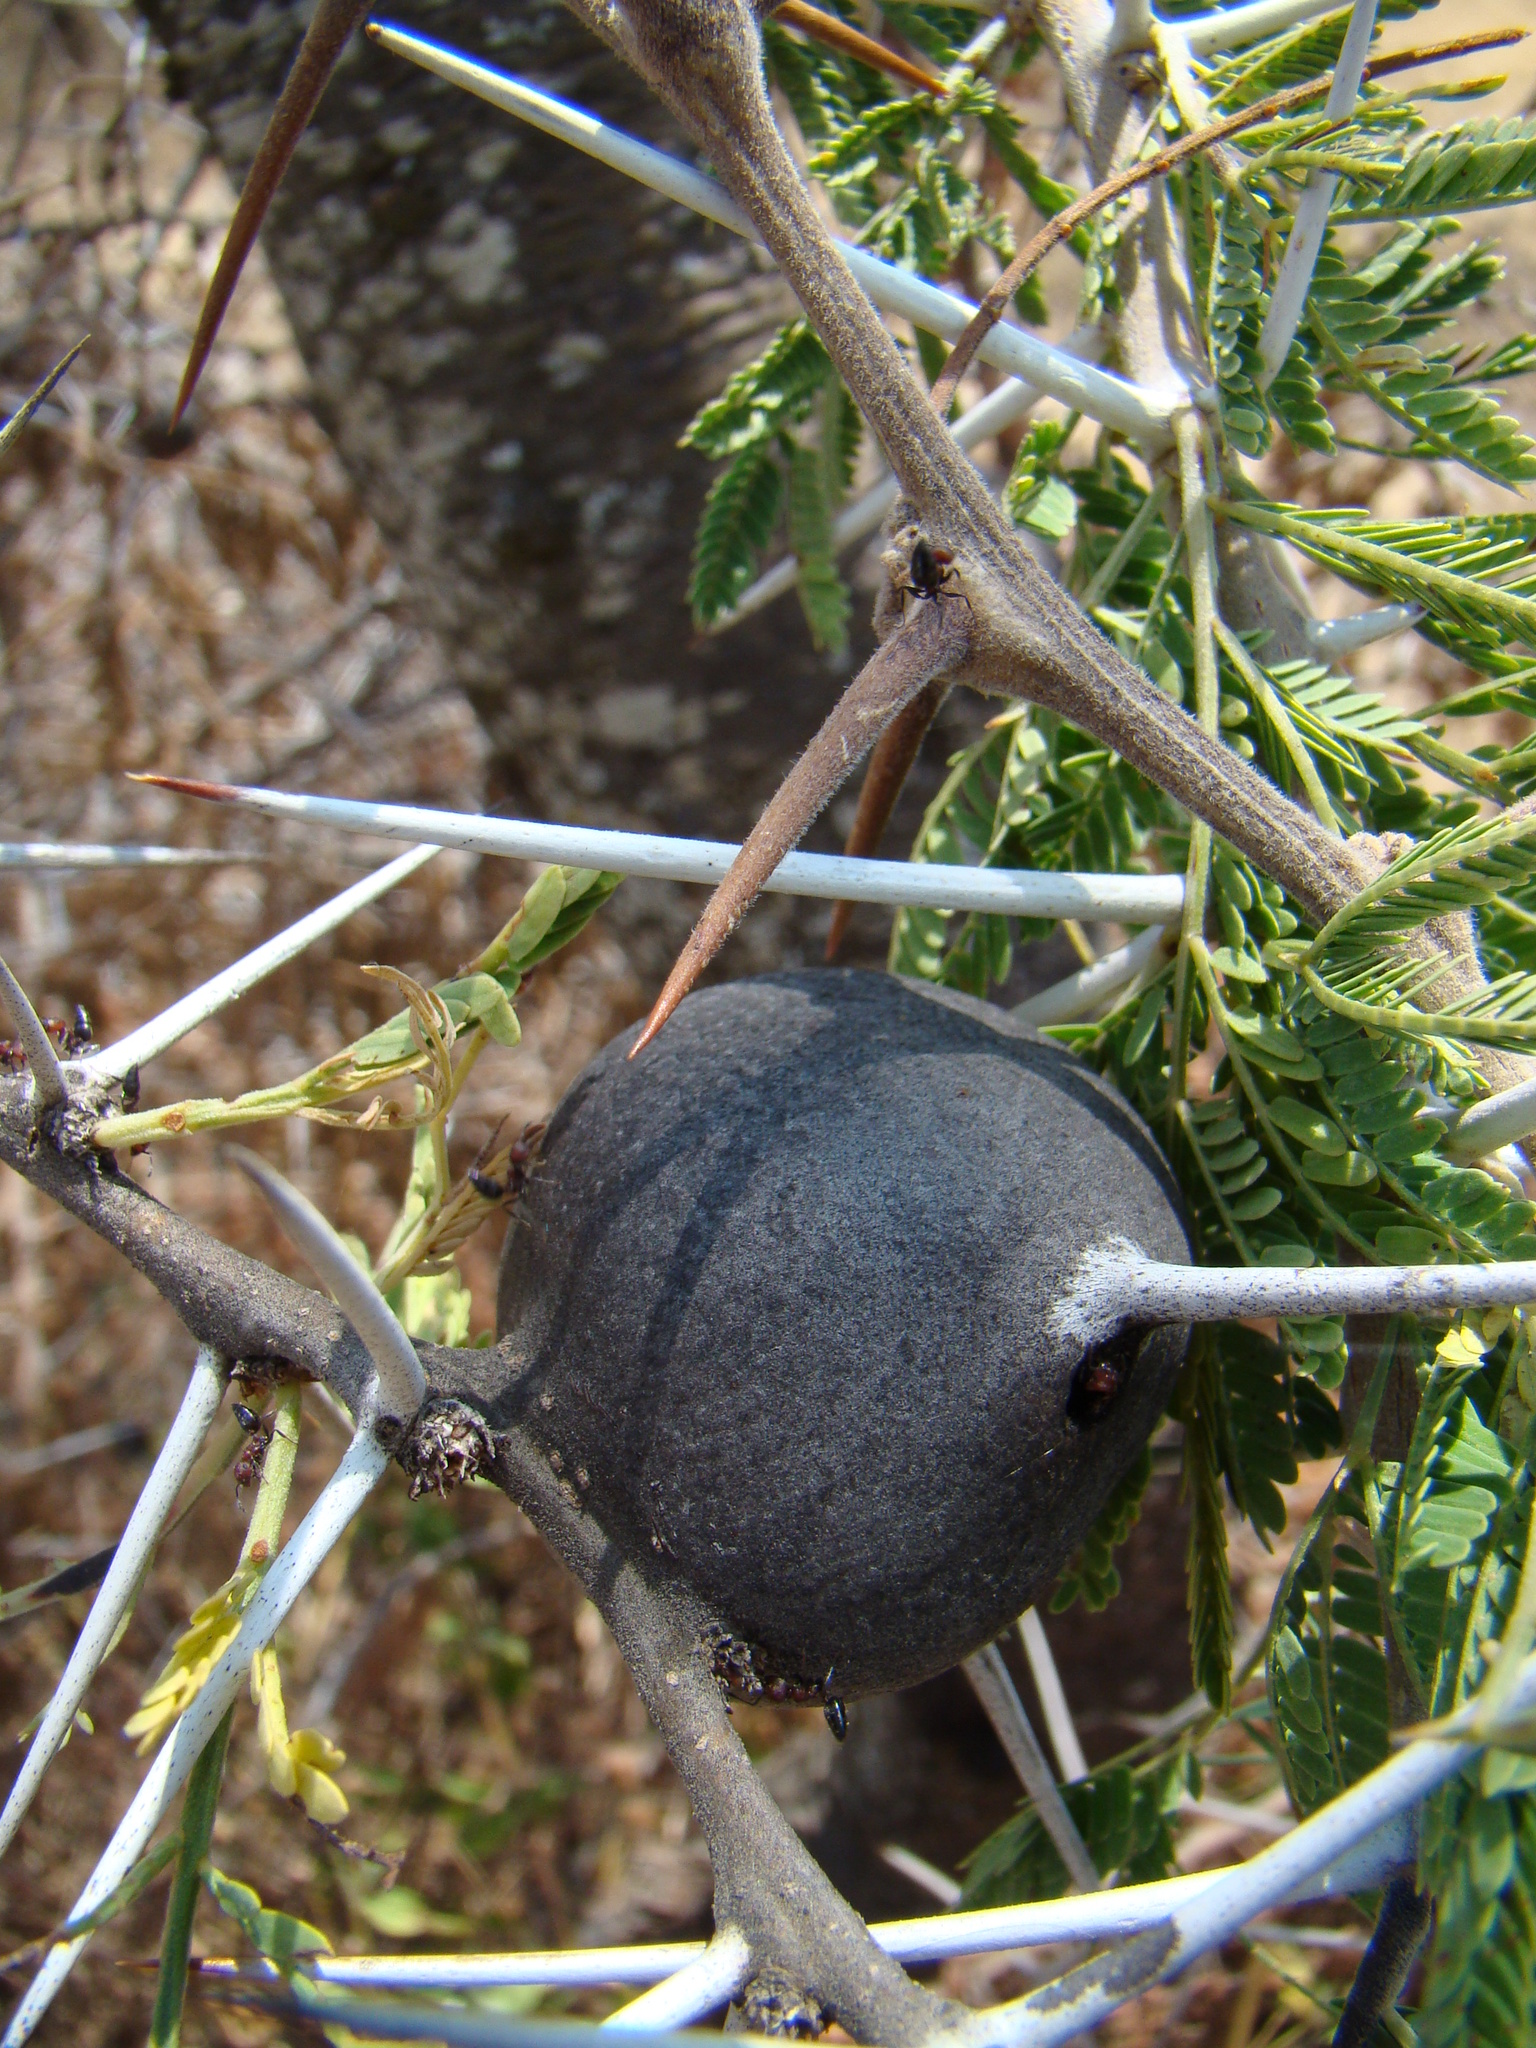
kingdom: Plantae
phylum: Tracheophyta
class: Magnoliopsida
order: Fabales
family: Fabaceae
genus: Vachellia
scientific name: Vachellia drepanolobium
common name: Whistling thorn
